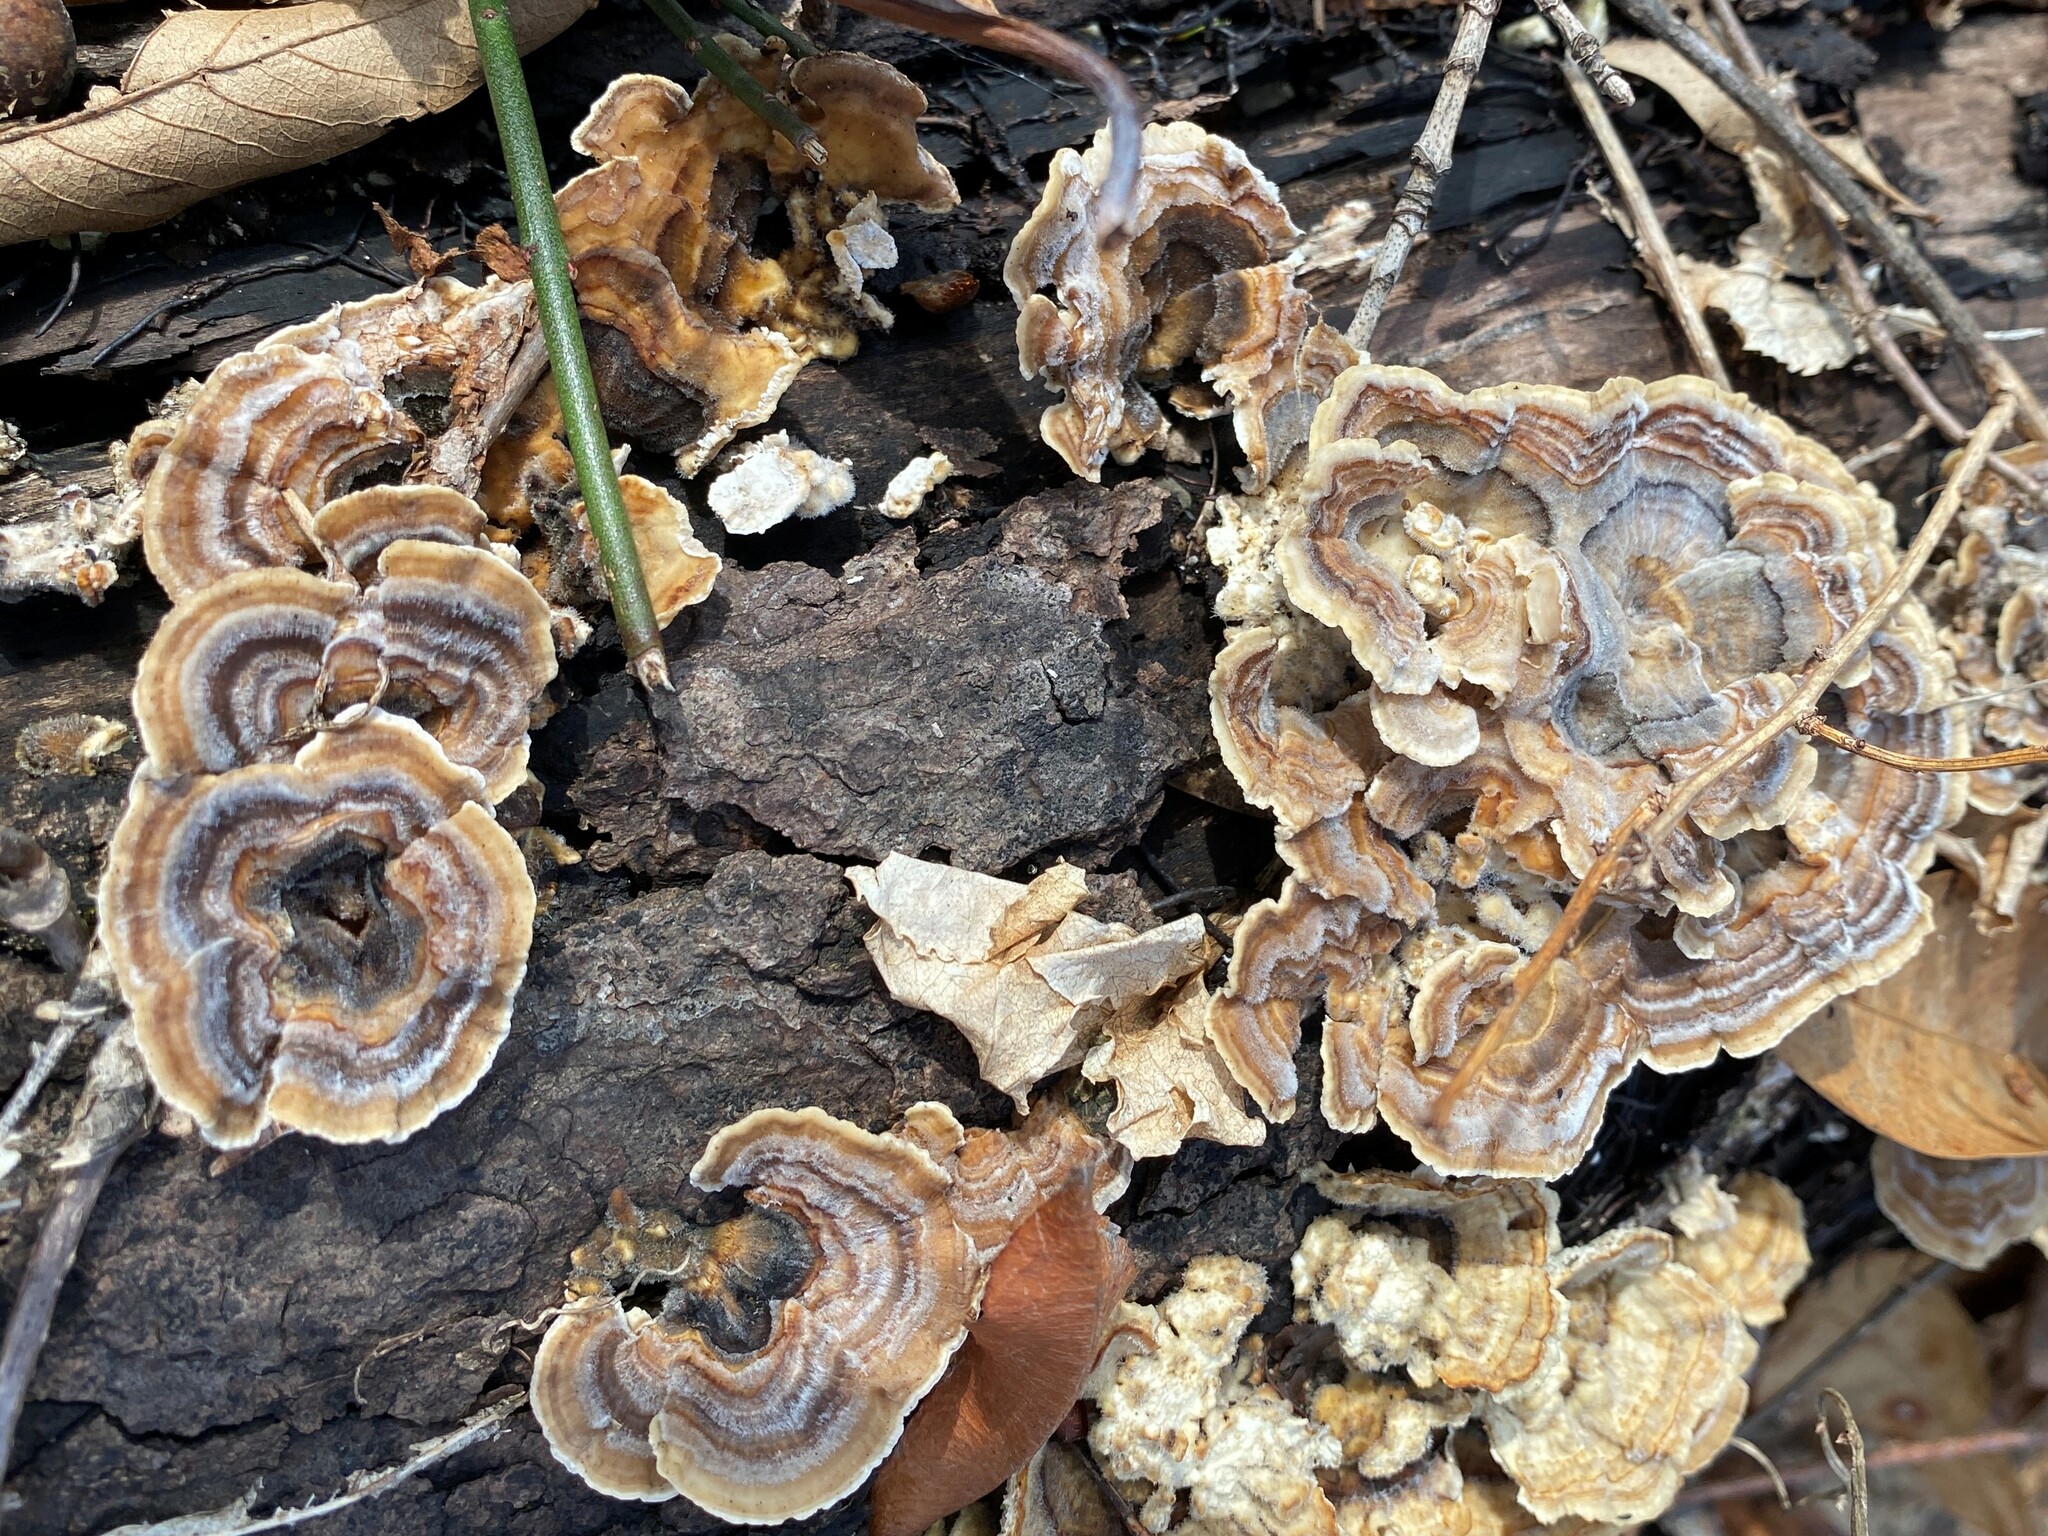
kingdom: Fungi
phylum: Basidiomycota
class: Agaricomycetes
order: Polyporales
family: Polyporaceae
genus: Trametes
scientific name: Trametes versicolor
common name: Turkeytail
